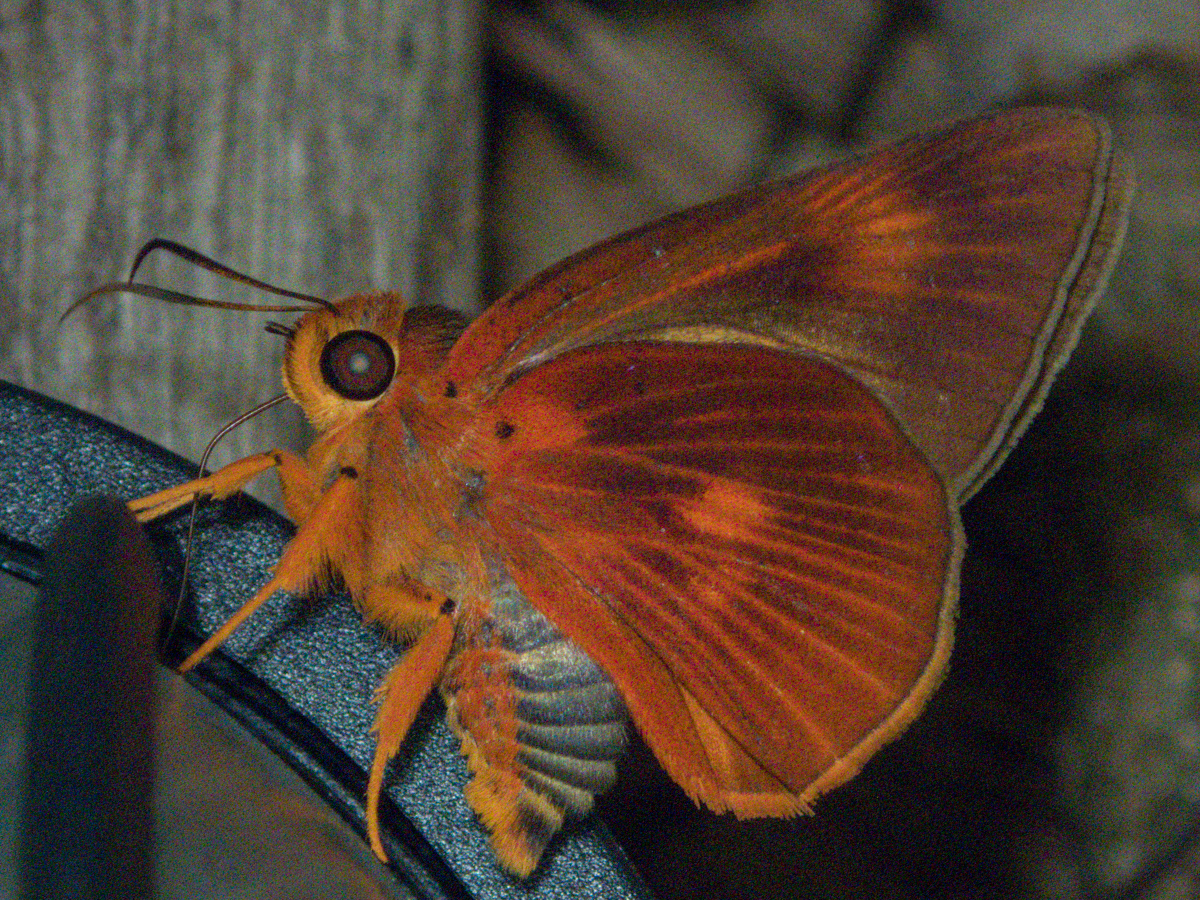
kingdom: Animalia
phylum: Arthropoda
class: Insecta
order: Lepidoptera
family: Hesperiidae
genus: Bibasis
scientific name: Bibasis etelka
